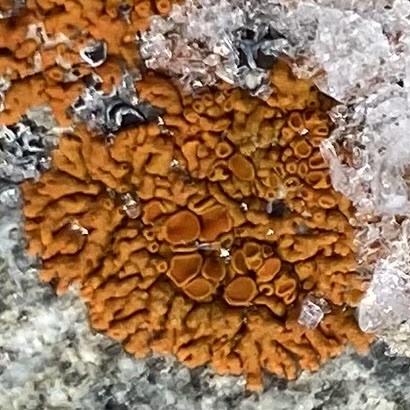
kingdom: Fungi
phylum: Ascomycota
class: Lecanoromycetes
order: Teloschistales
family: Teloschistaceae
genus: Xanthoria
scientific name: Xanthoria elegans
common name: Elegant sunburst lichen
